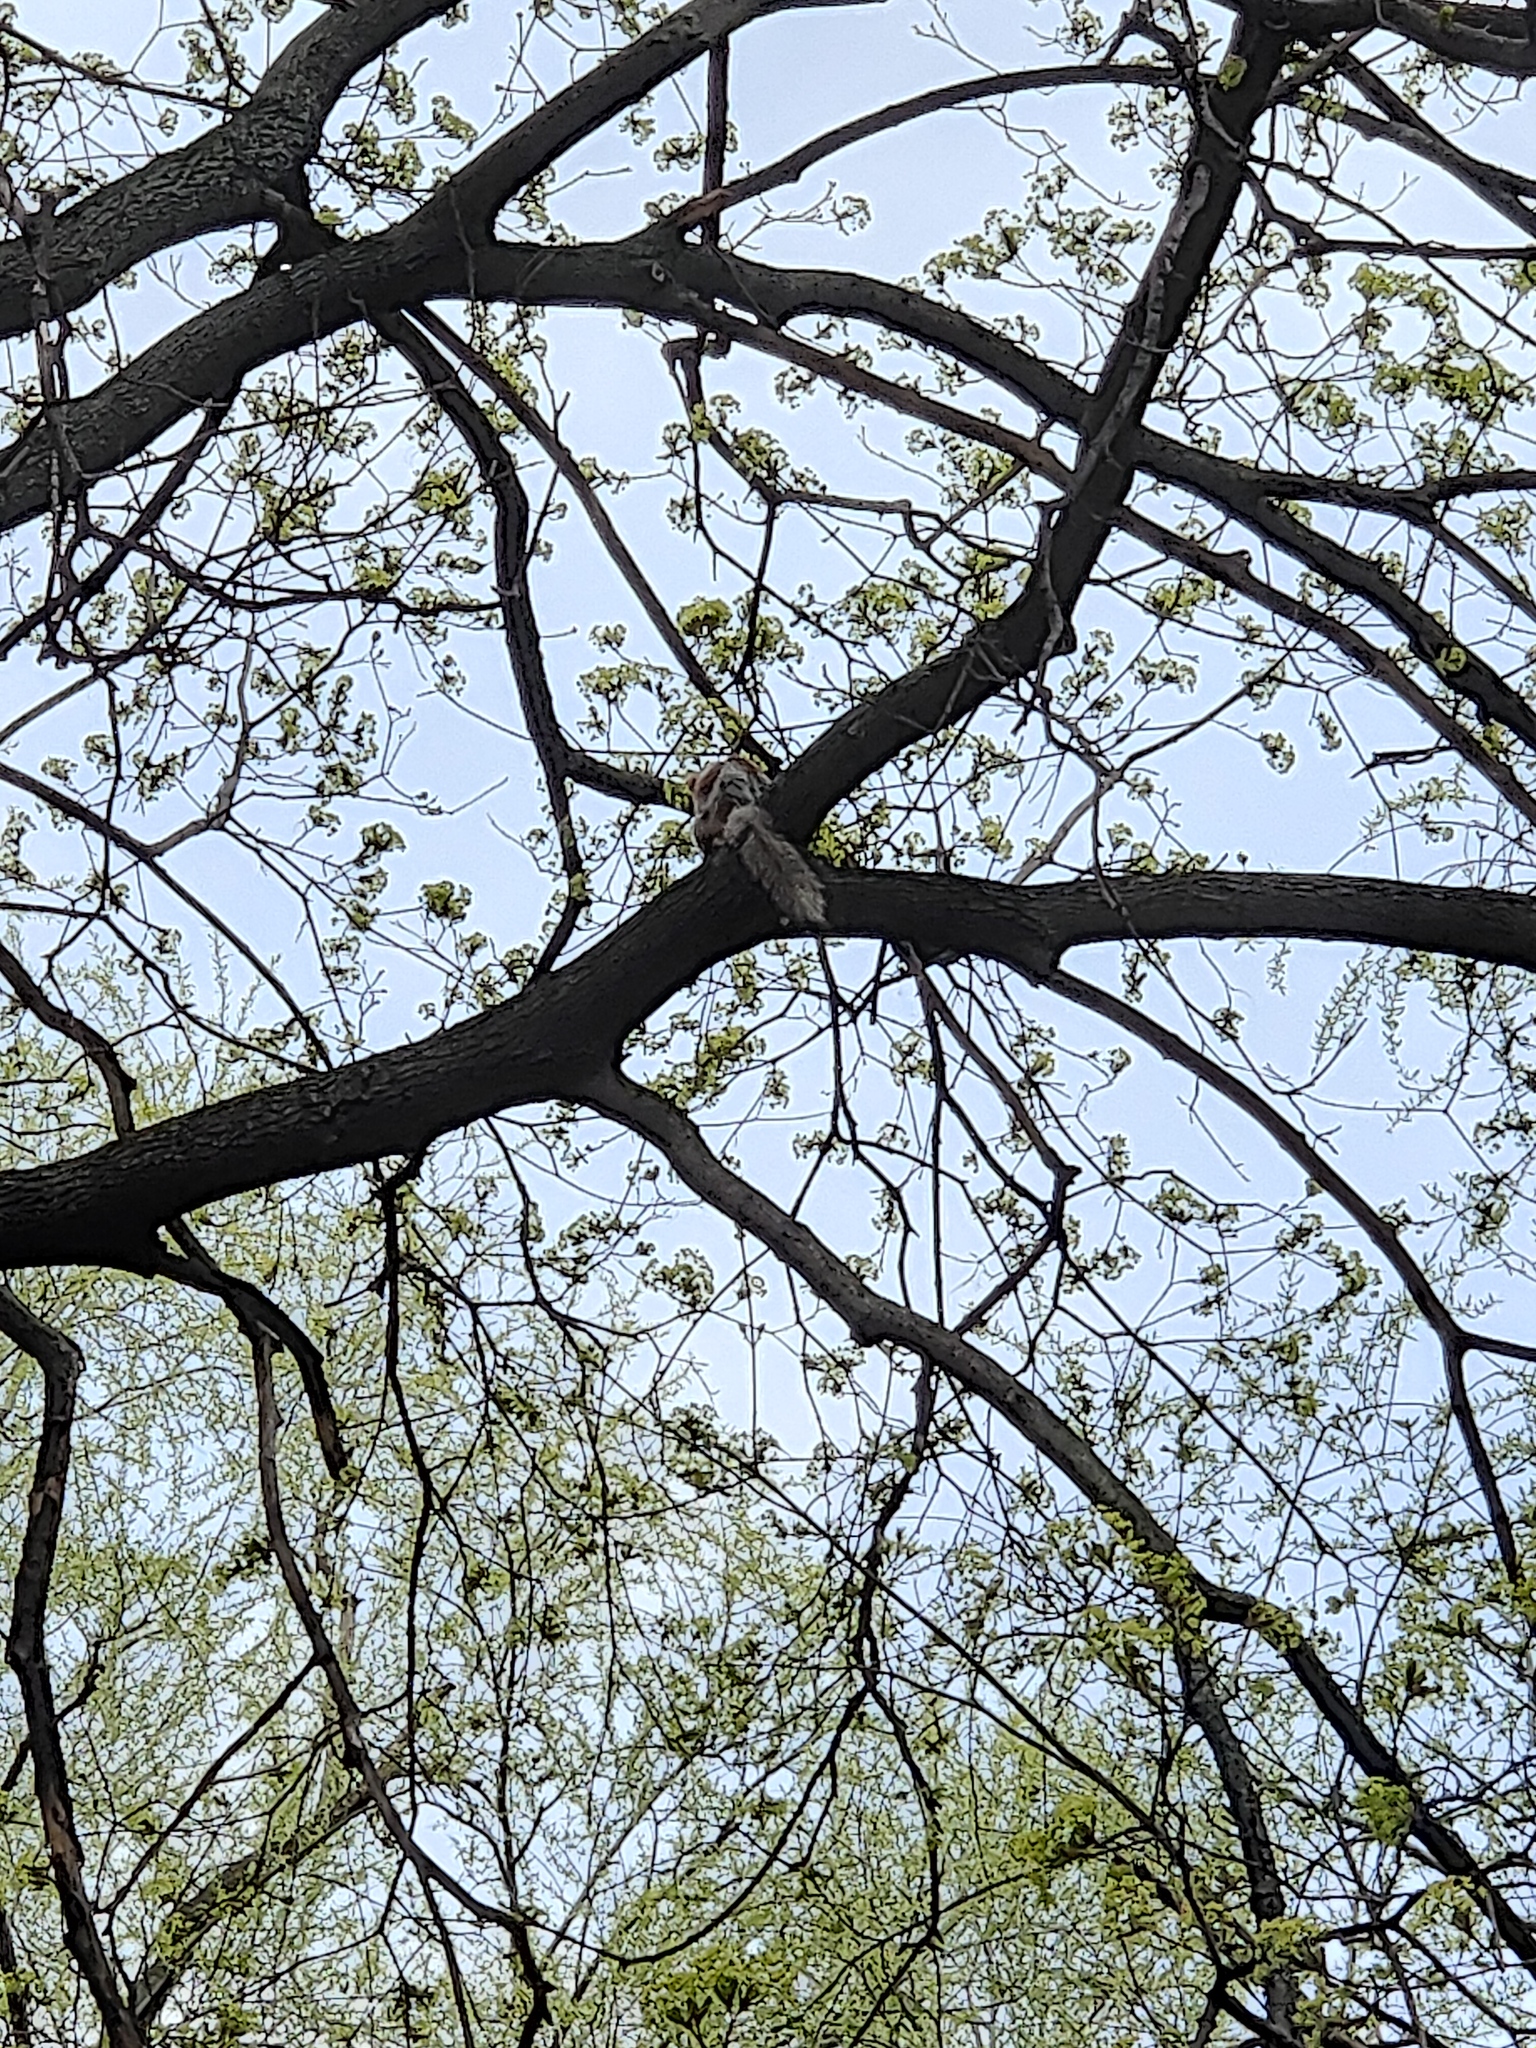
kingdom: Animalia
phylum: Chordata
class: Mammalia
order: Rodentia
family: Sciuridae
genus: Sciurus
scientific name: Sciurus vulgaris
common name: Eurasian red squirrel
